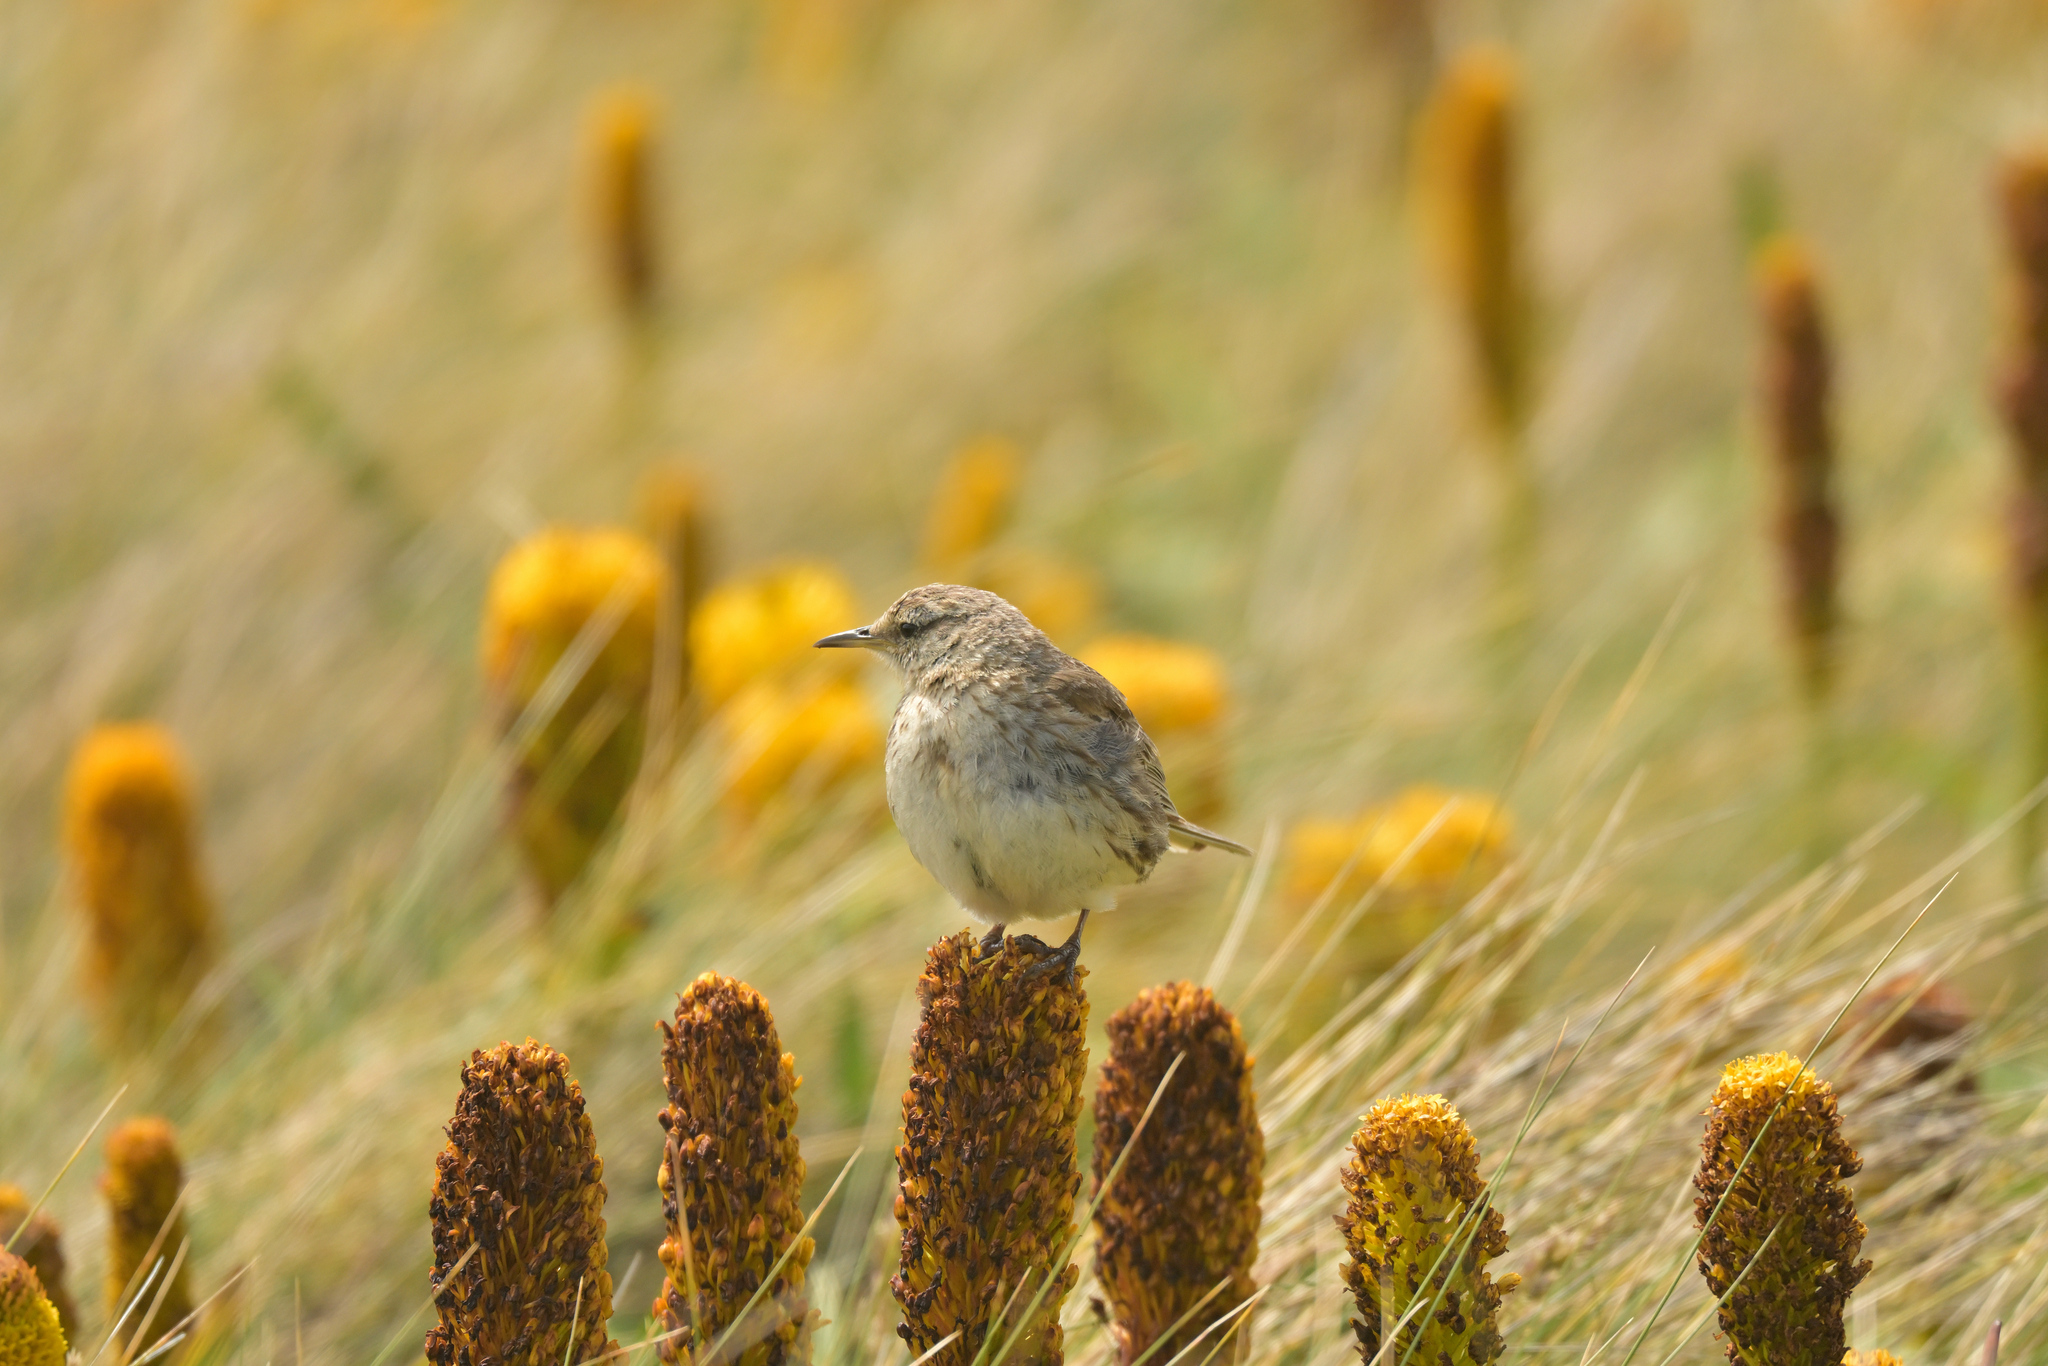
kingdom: Animalia
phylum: Chordata
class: Aves
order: Passeriformes
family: Motacillidae
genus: Anthus
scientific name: Anthus novaeseelandiae
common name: New zealand pipit
